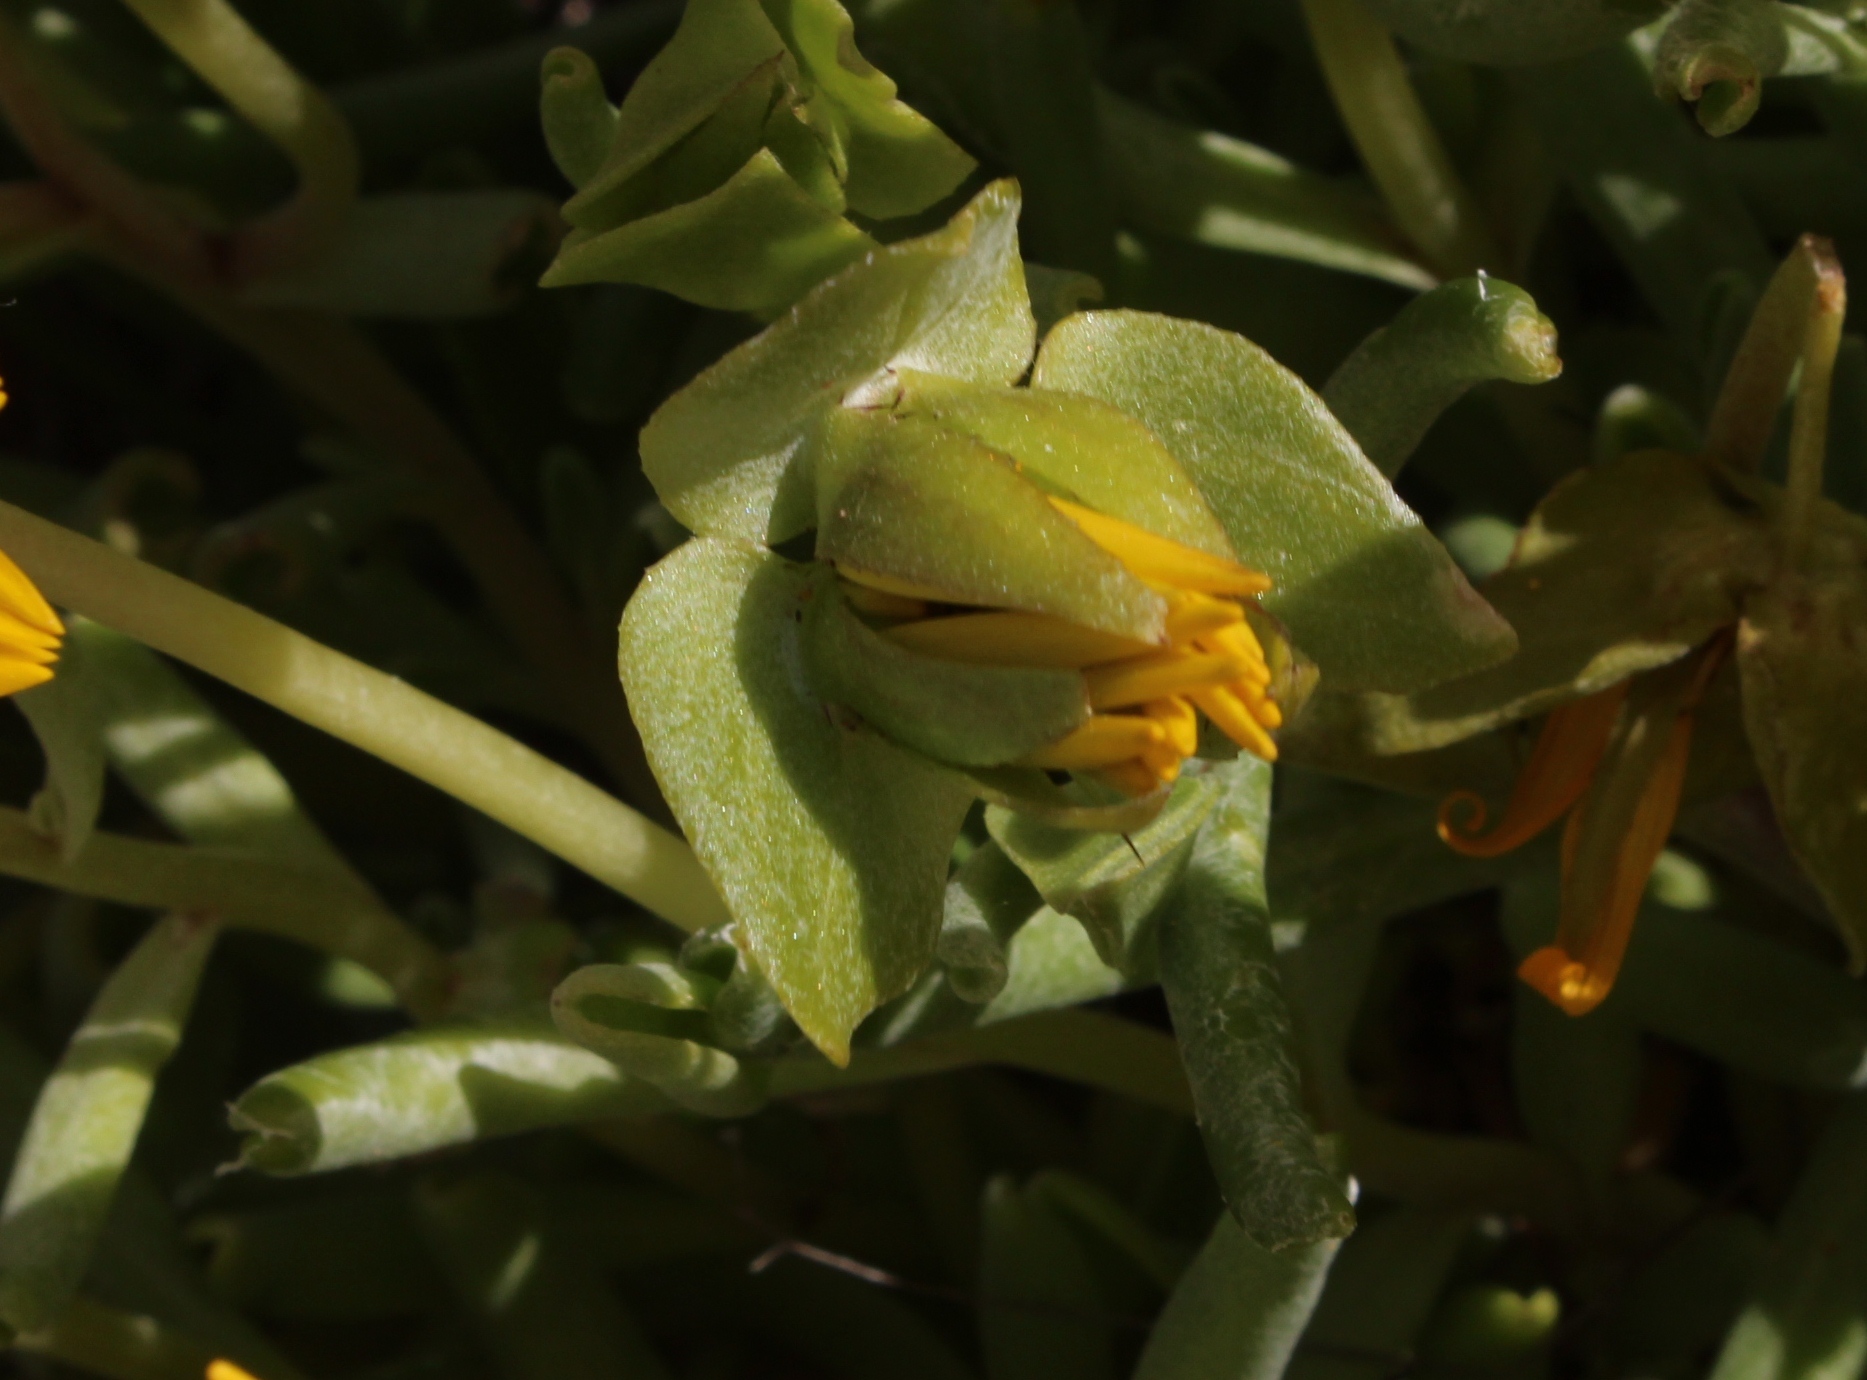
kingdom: Plantae
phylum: Tracheophyta
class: Magnoliopsida
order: Asterales
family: Asteraceae
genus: Didelta
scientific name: Didelta carnosa
